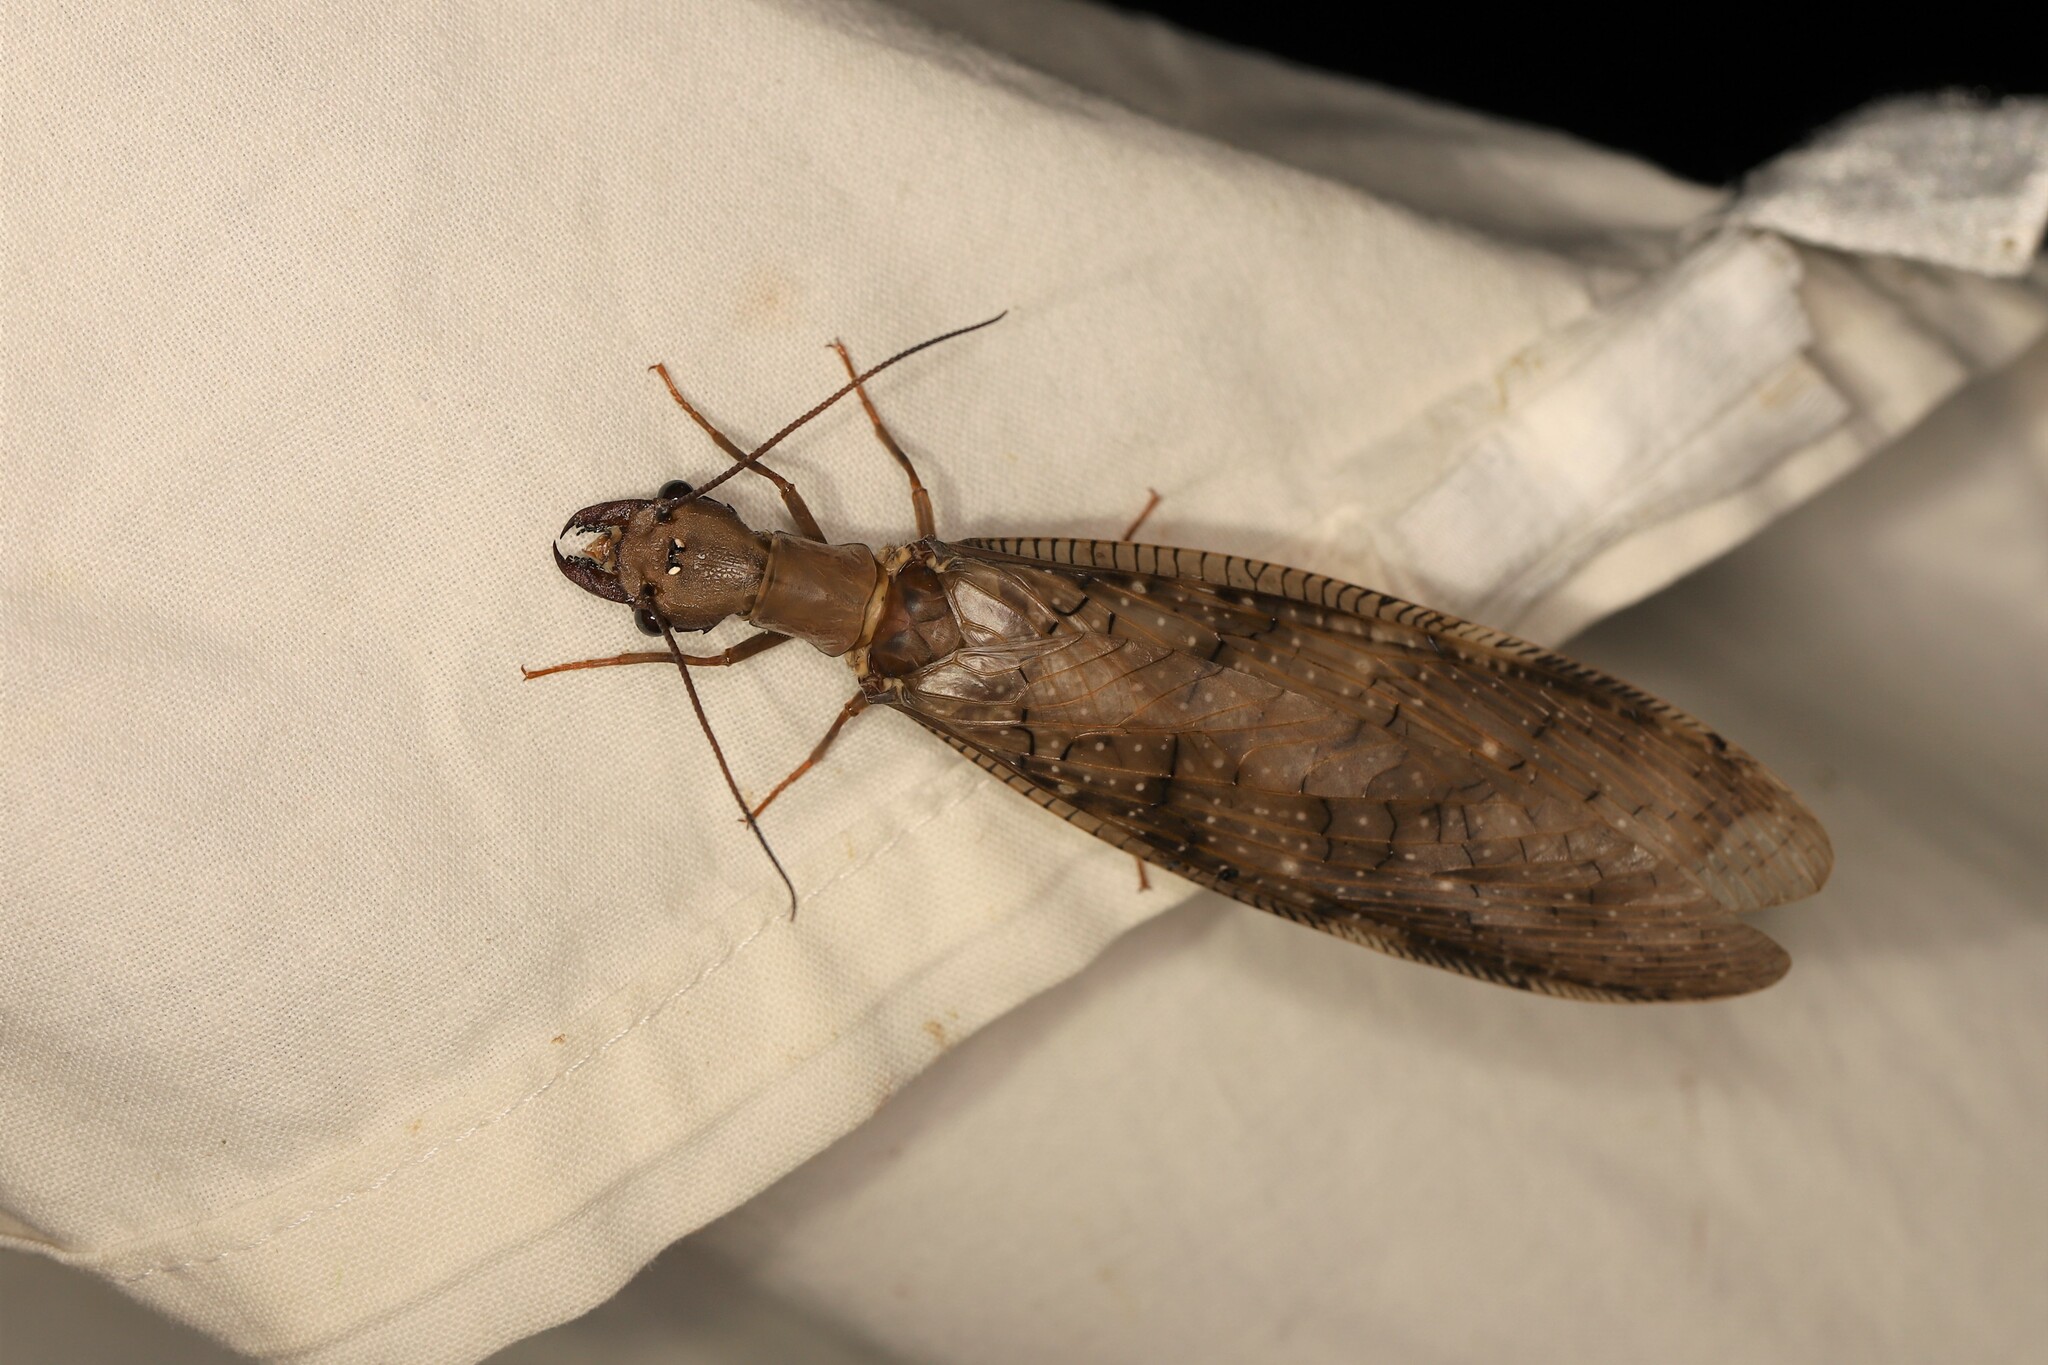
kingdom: Animalia
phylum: Arthropoda
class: Insecta
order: Megaloptera
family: Corydalidae
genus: Corydalus
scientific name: Corydalus armatus
